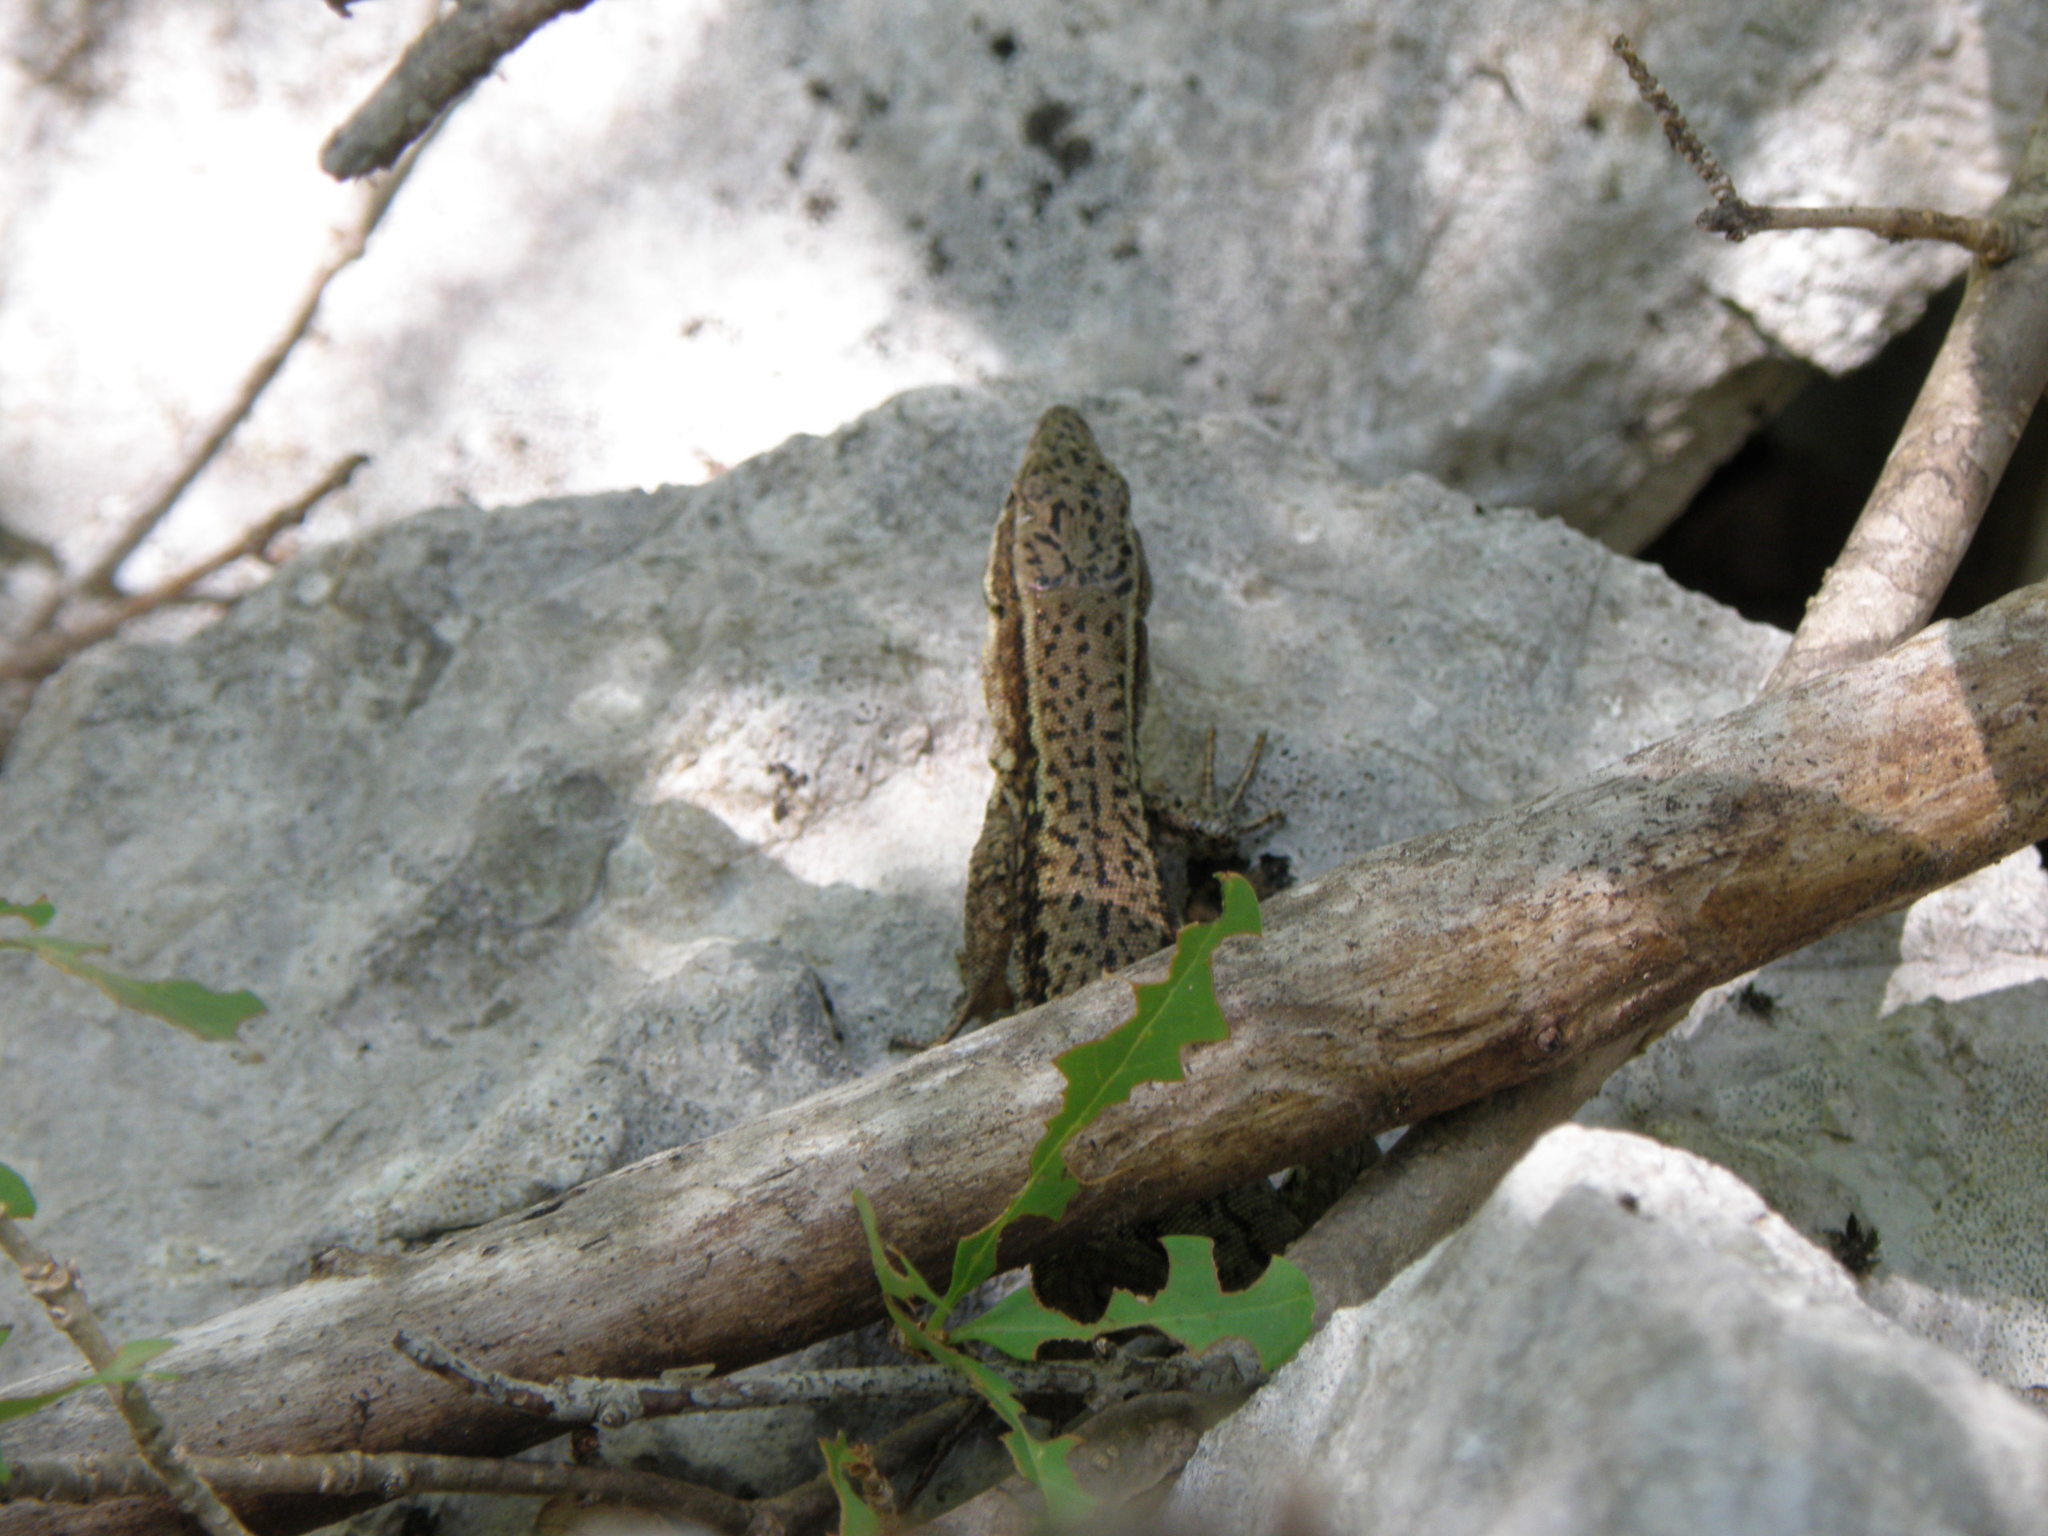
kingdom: Animalia
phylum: Chordata
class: Squamata
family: Lacertidae
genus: Podarcis
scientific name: Podarcis muralis
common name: Common wall lizard
